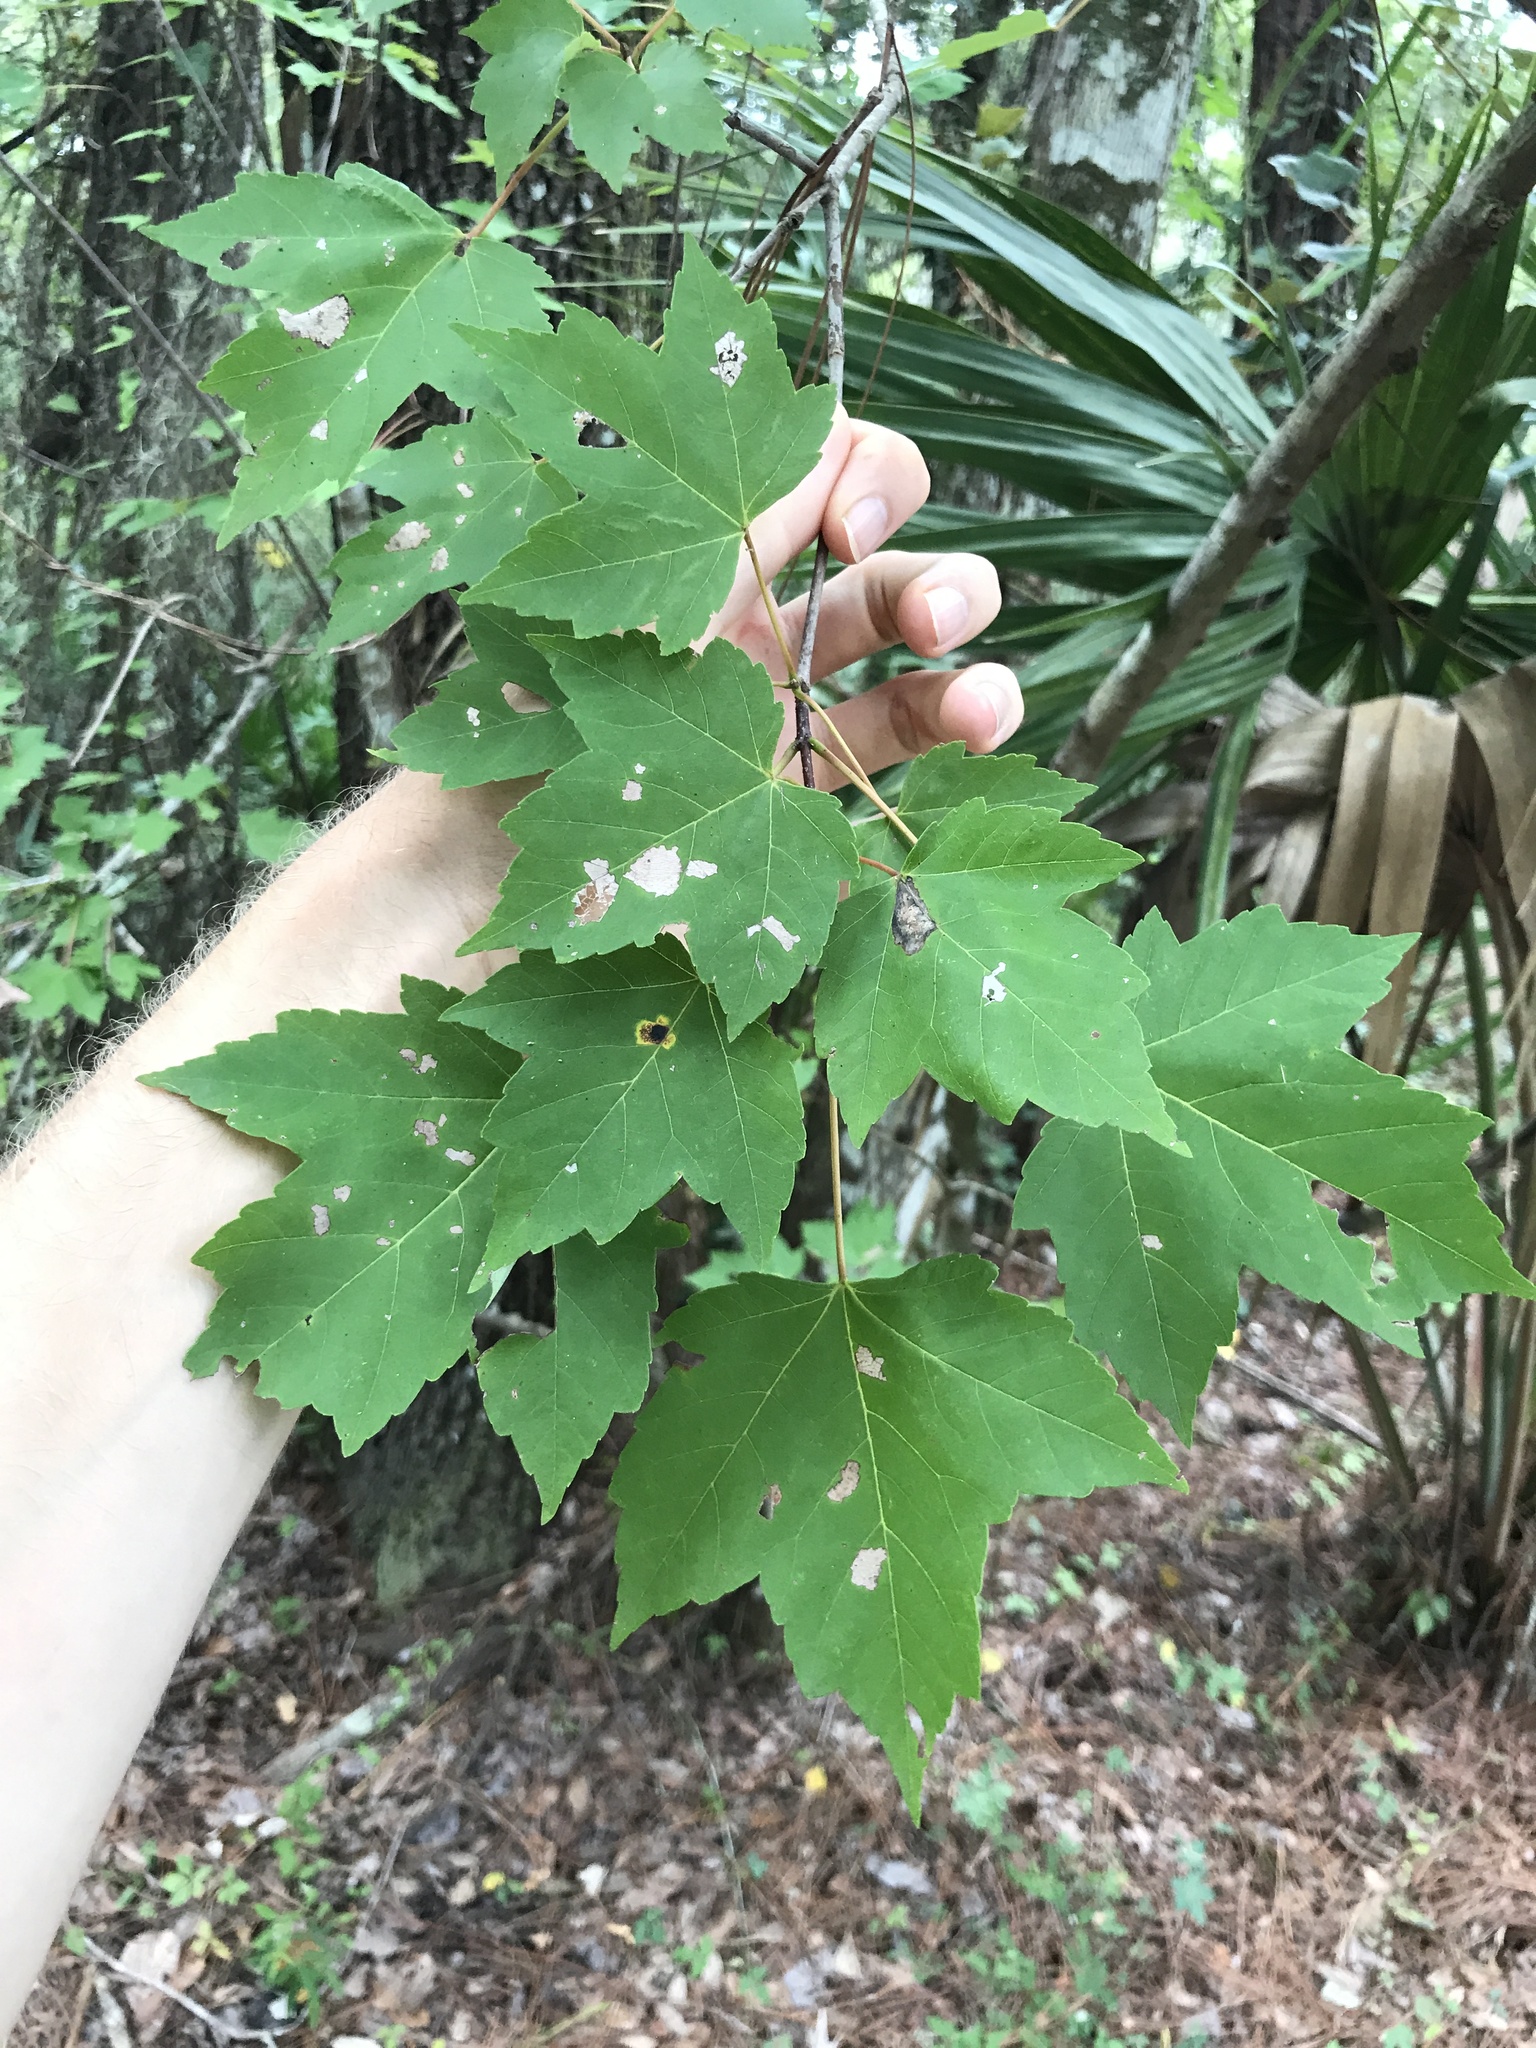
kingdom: Plantae
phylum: Tracheophyta
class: Magnoliopsida
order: Sapindales
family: Sapindaceae
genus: Acer
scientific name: Acer rubrum
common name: Red maple
